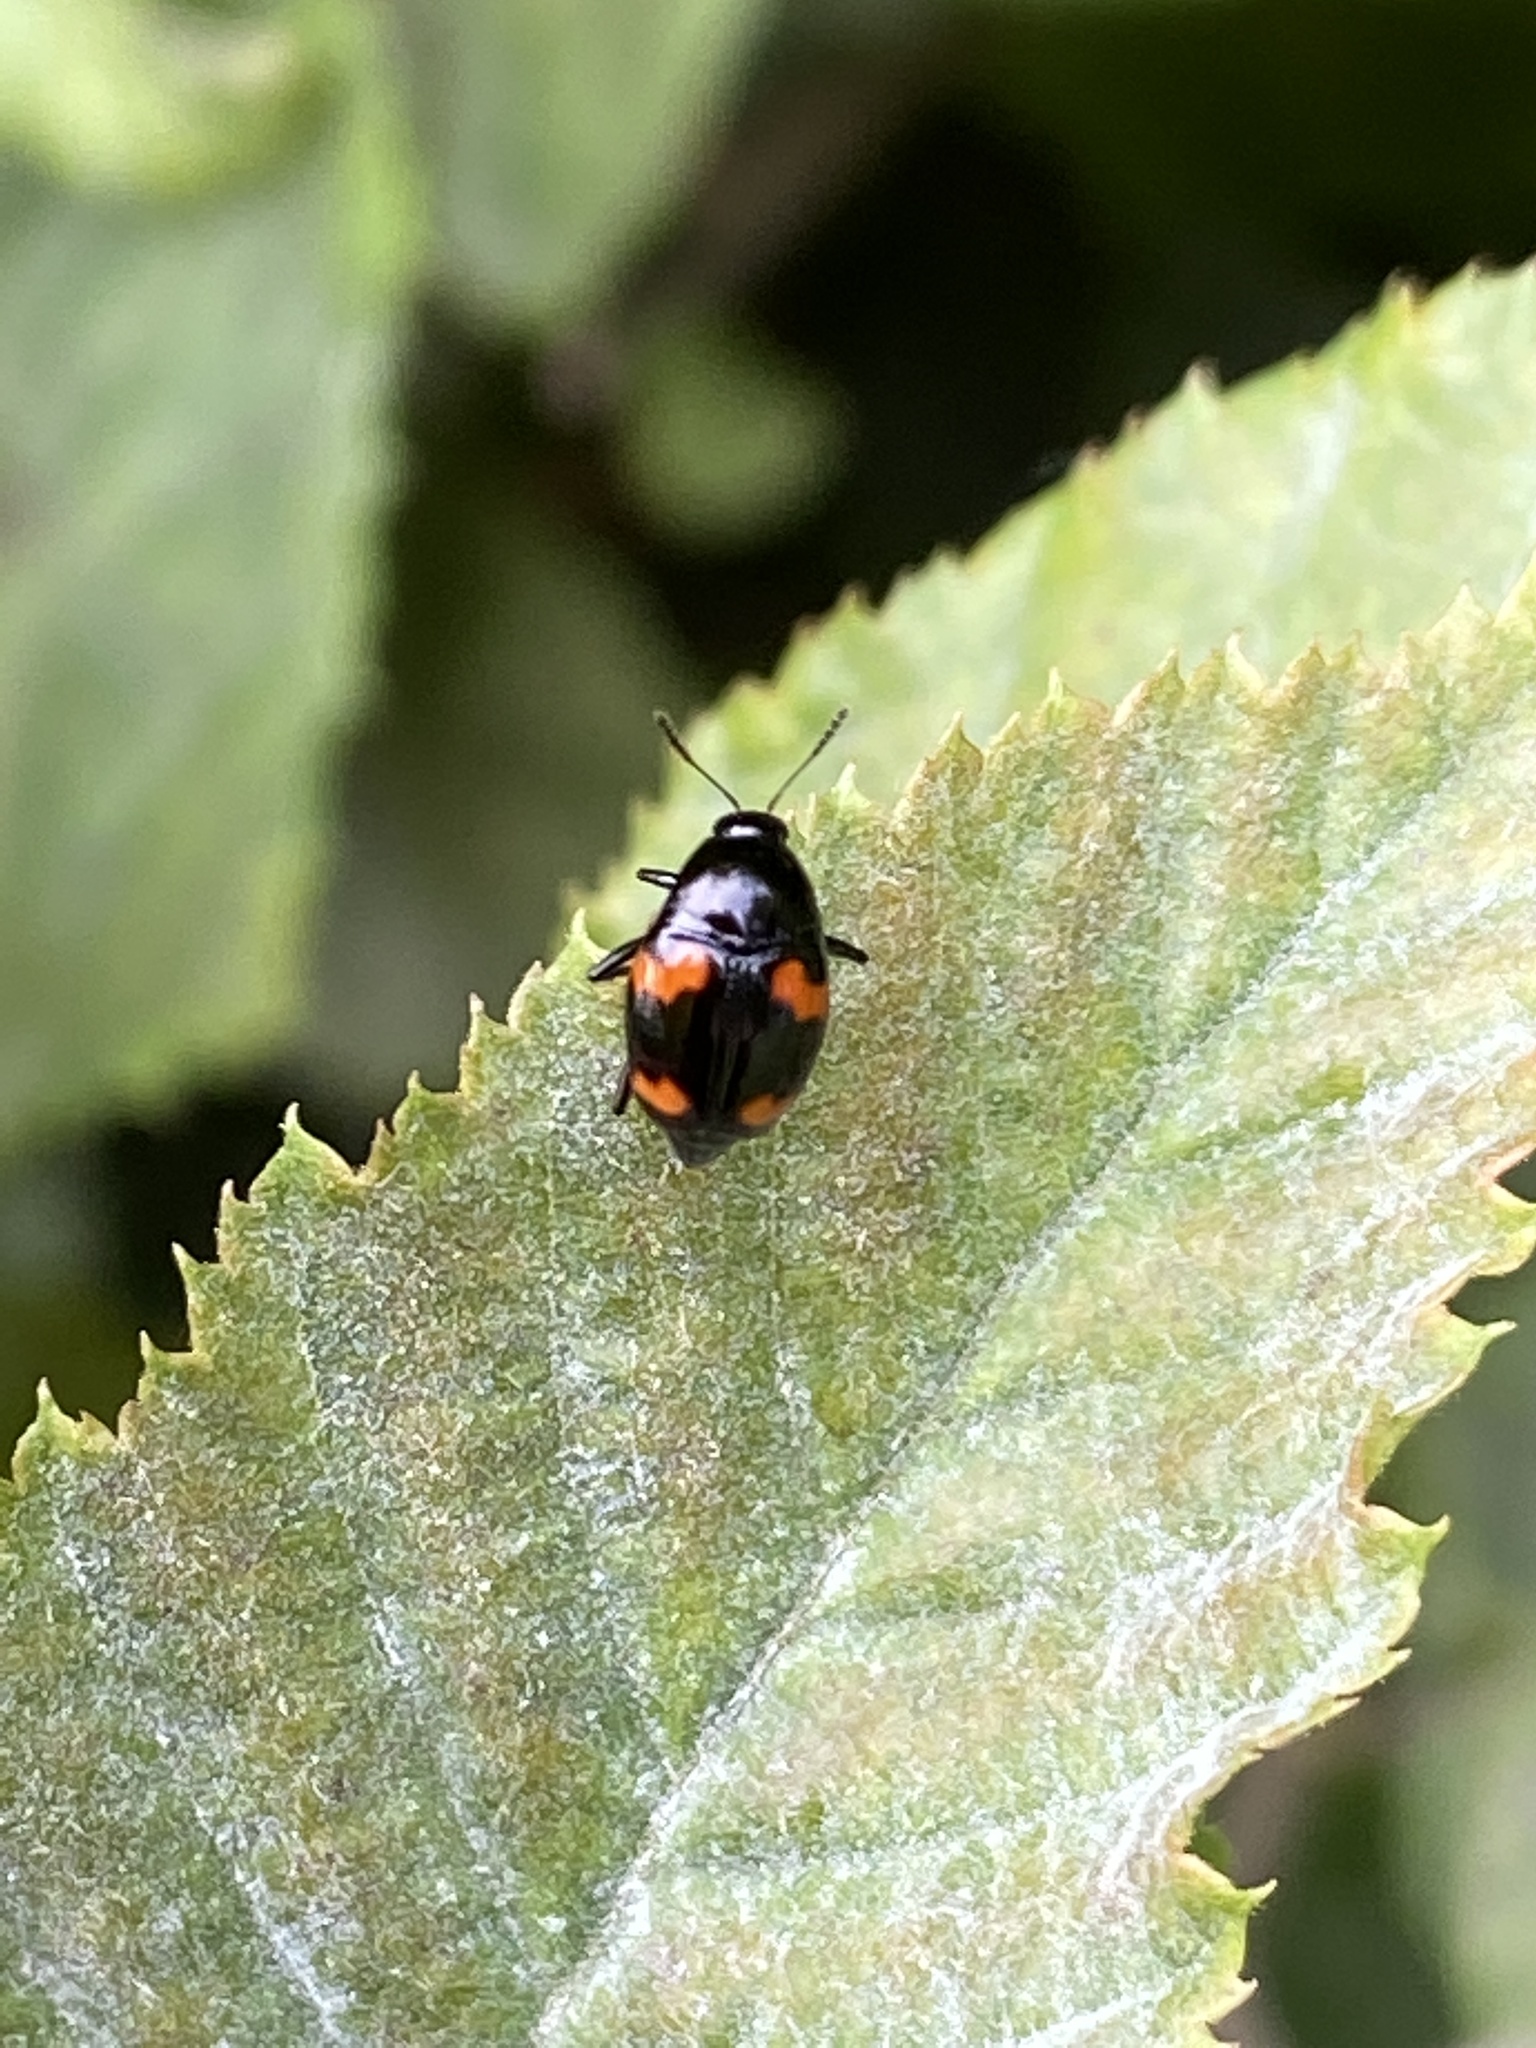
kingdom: Animalia
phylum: Arthropoda
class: Insecta
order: Coleoptera
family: Staphylinidae
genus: Scaphidium
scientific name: Scaphidium quadrimaculatum
